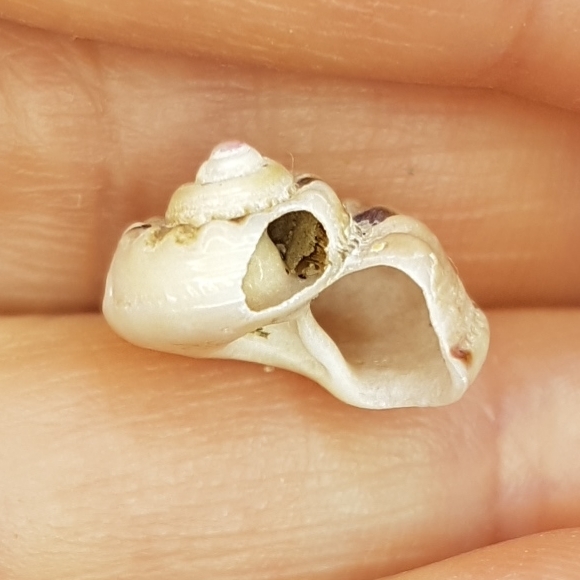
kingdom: Animalia
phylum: Mollusca
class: Gastropoda
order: Trochida
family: Trochidae
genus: Gibbula
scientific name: Gibbula magus
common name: Turban top shell
